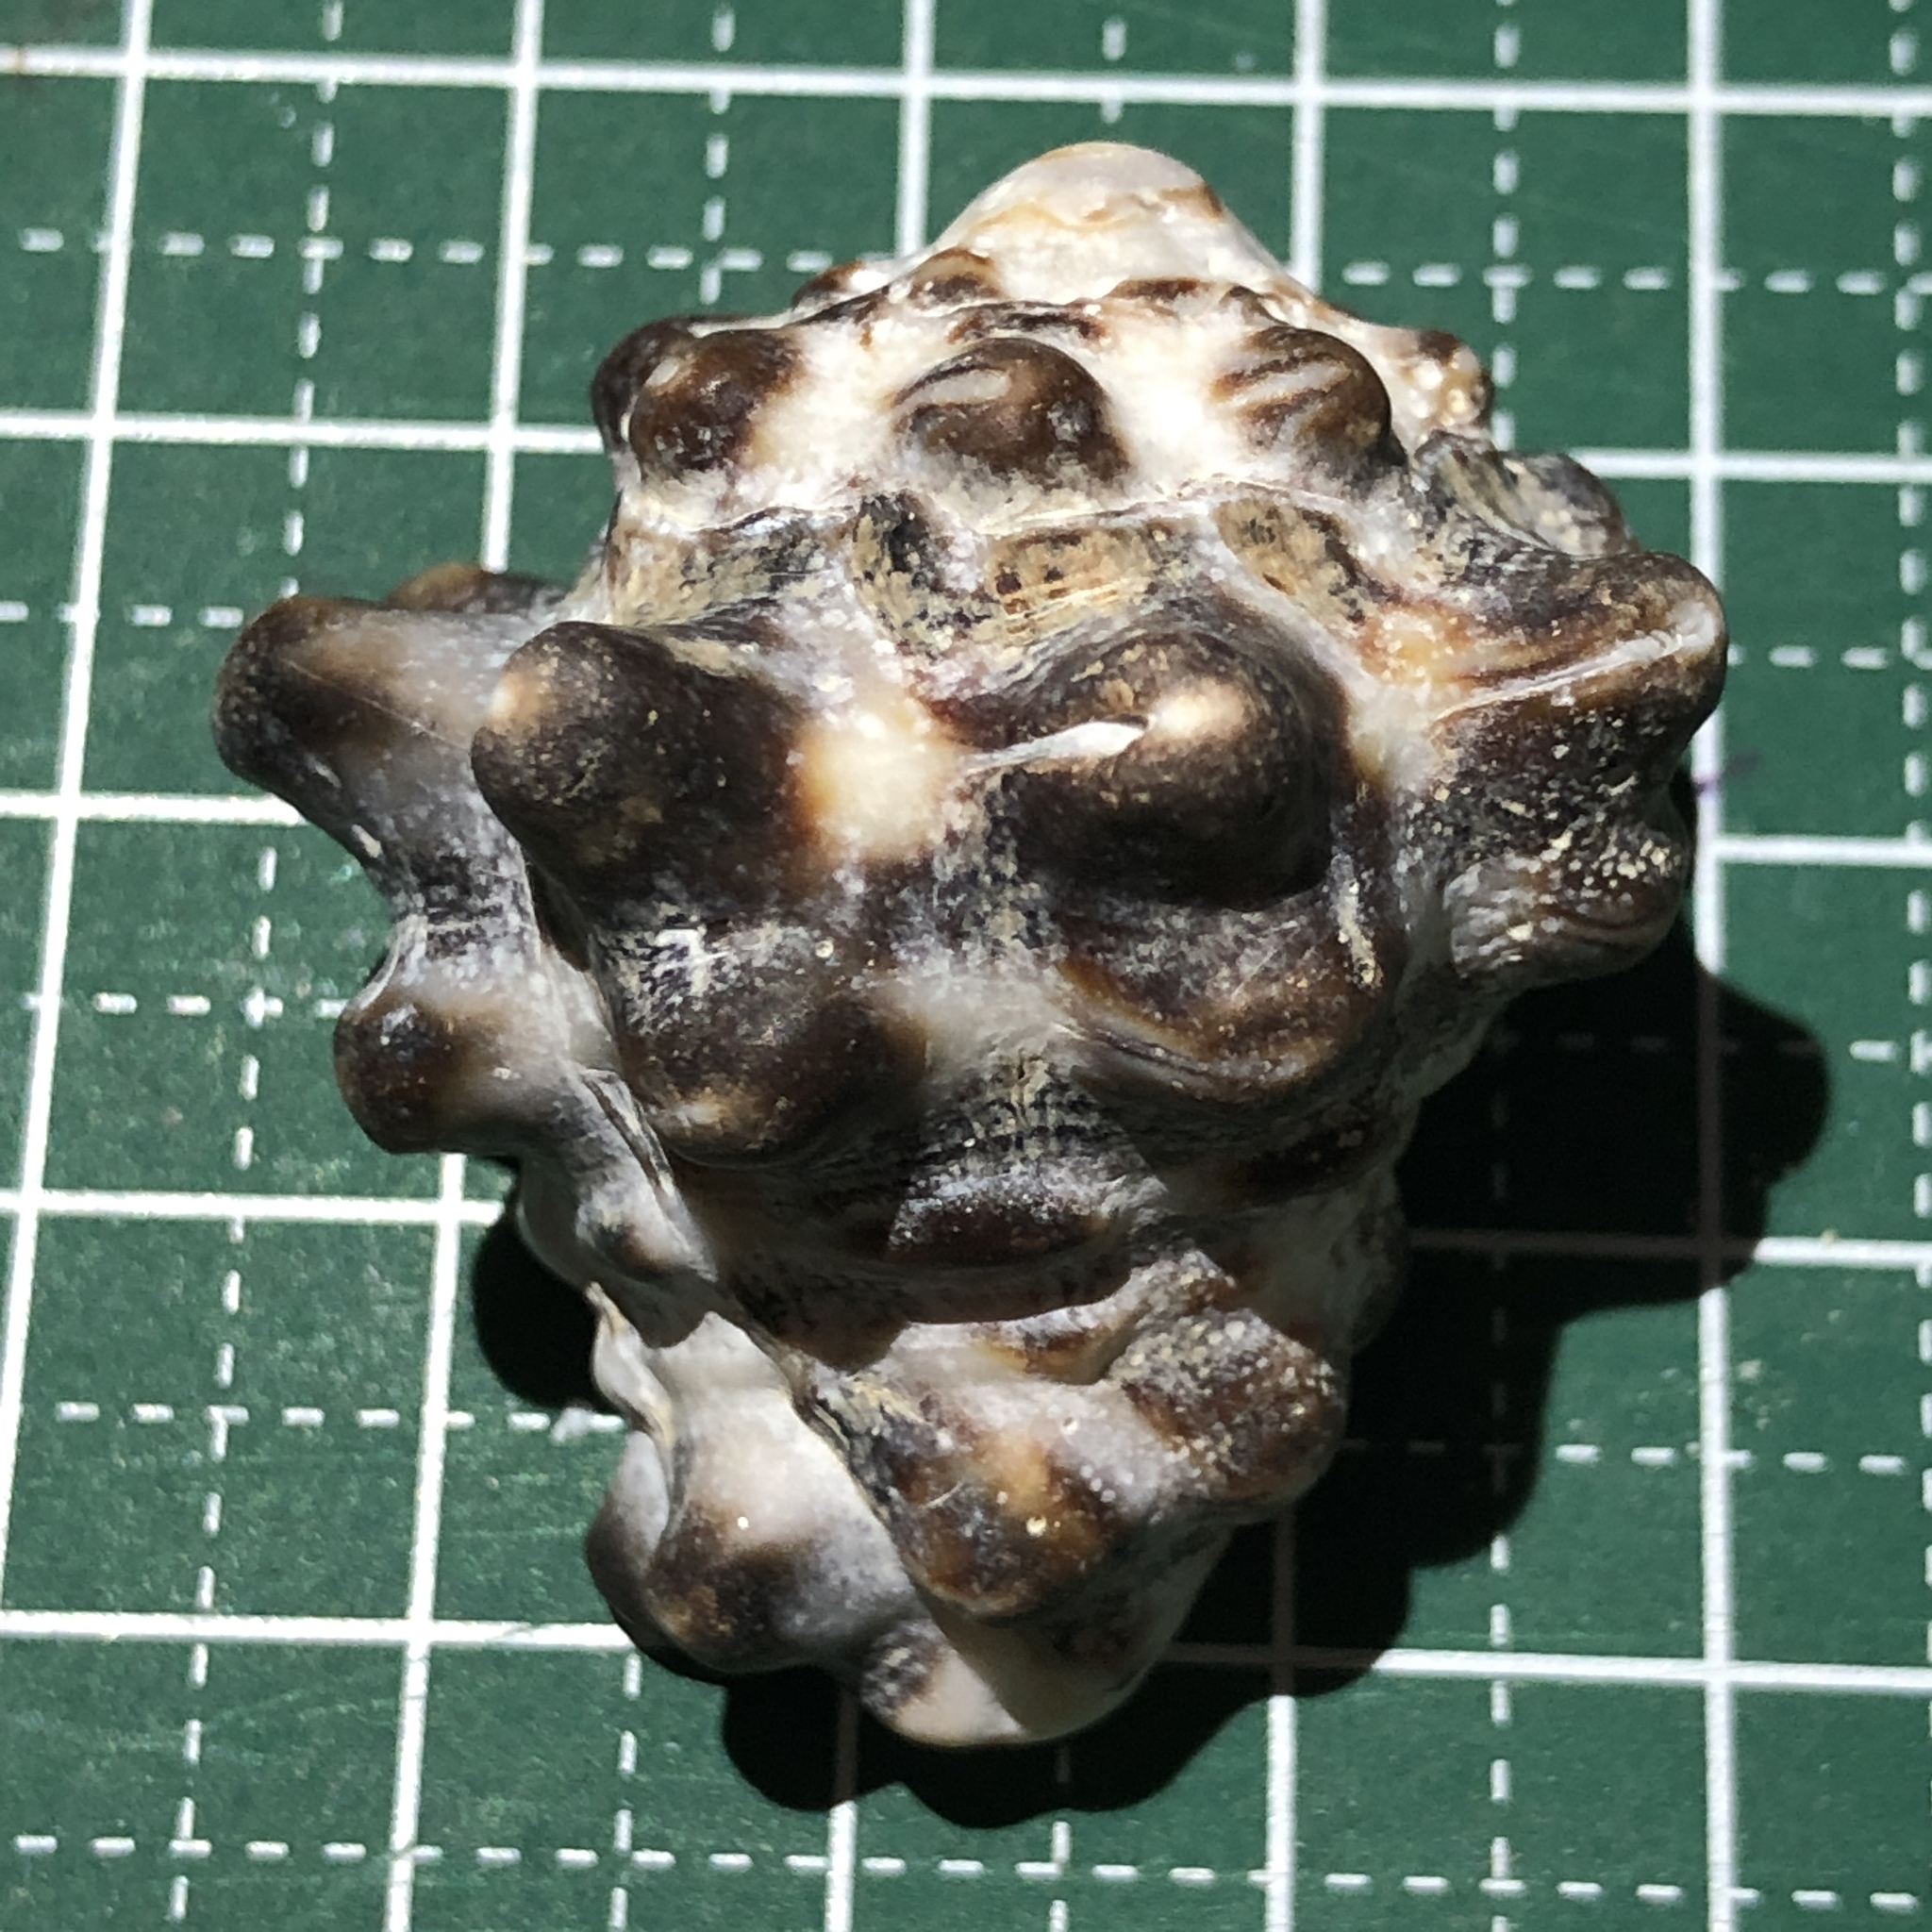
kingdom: Animalia
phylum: Mollusca
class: Gastropoda
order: Neogastropoda
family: Turbinellidae
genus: Vasum
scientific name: Vasum turbinellus
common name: Pacific top vase
